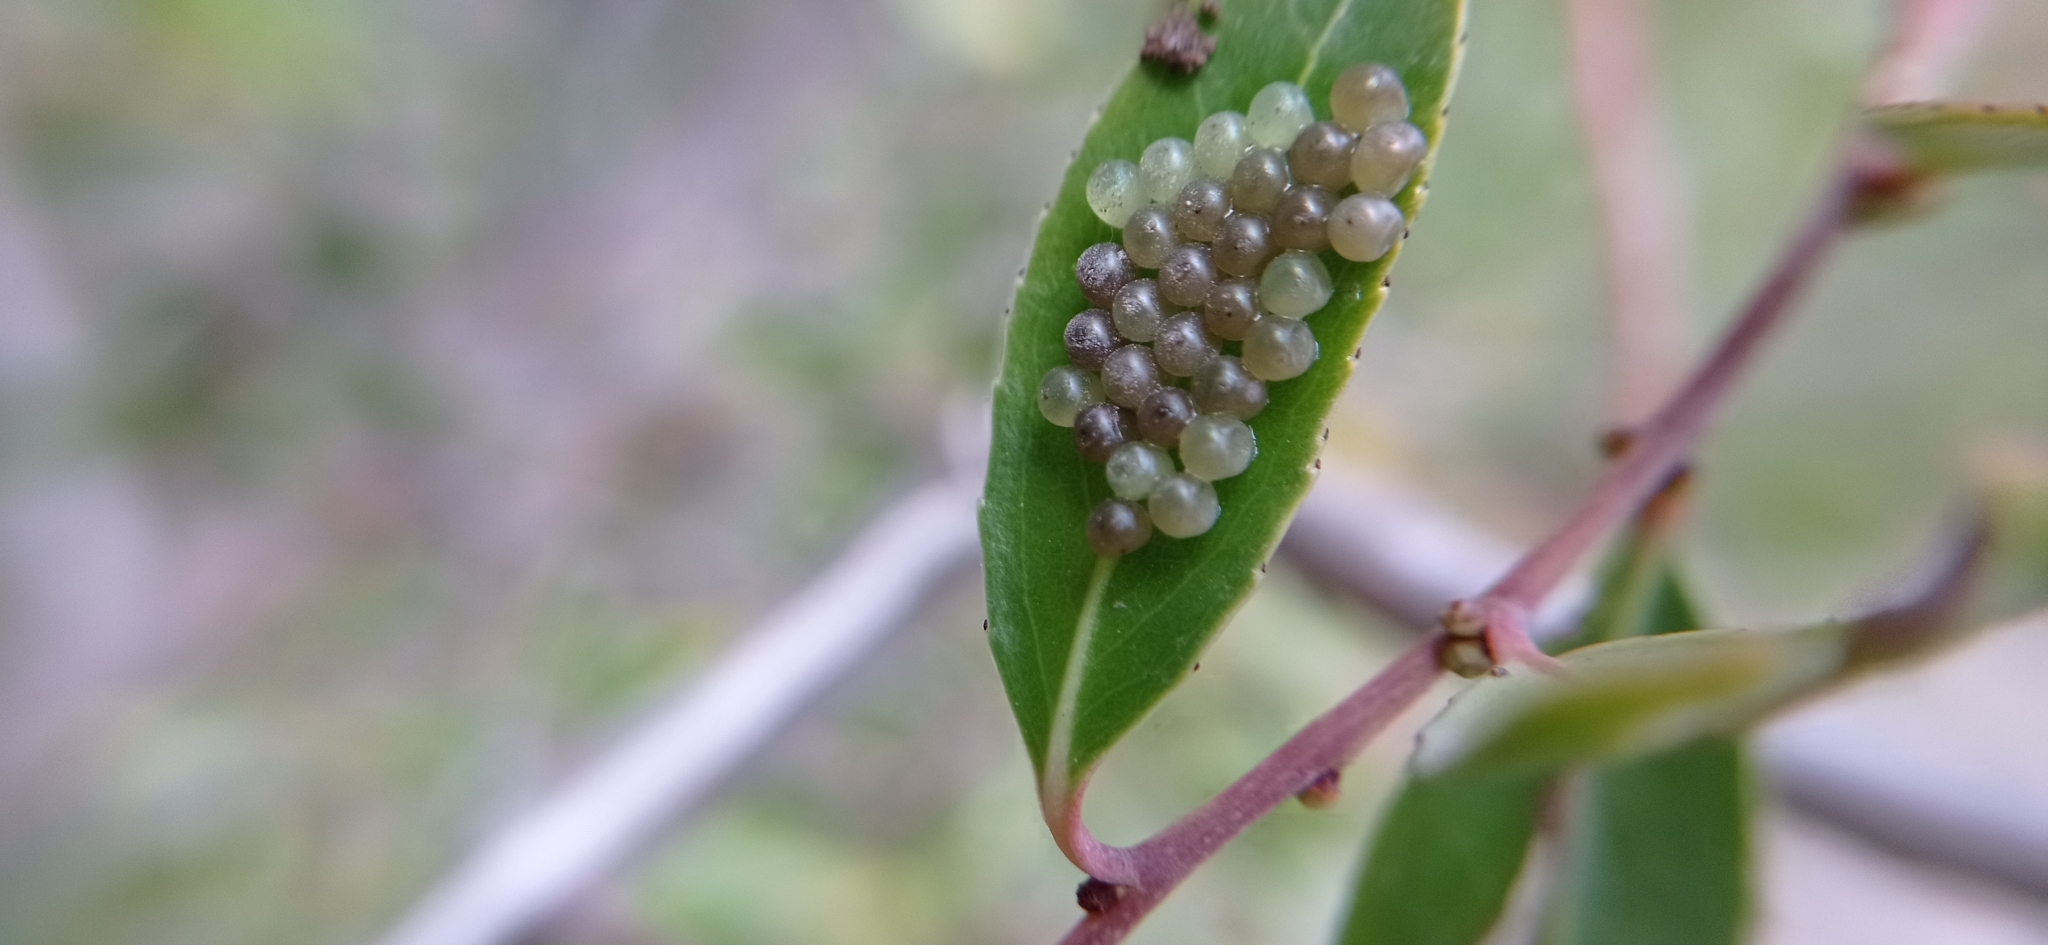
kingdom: Animalia
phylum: Arthropoda
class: Insecta
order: Hemiptera
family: Pentatomidae
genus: Chinavia
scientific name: Chinavia
